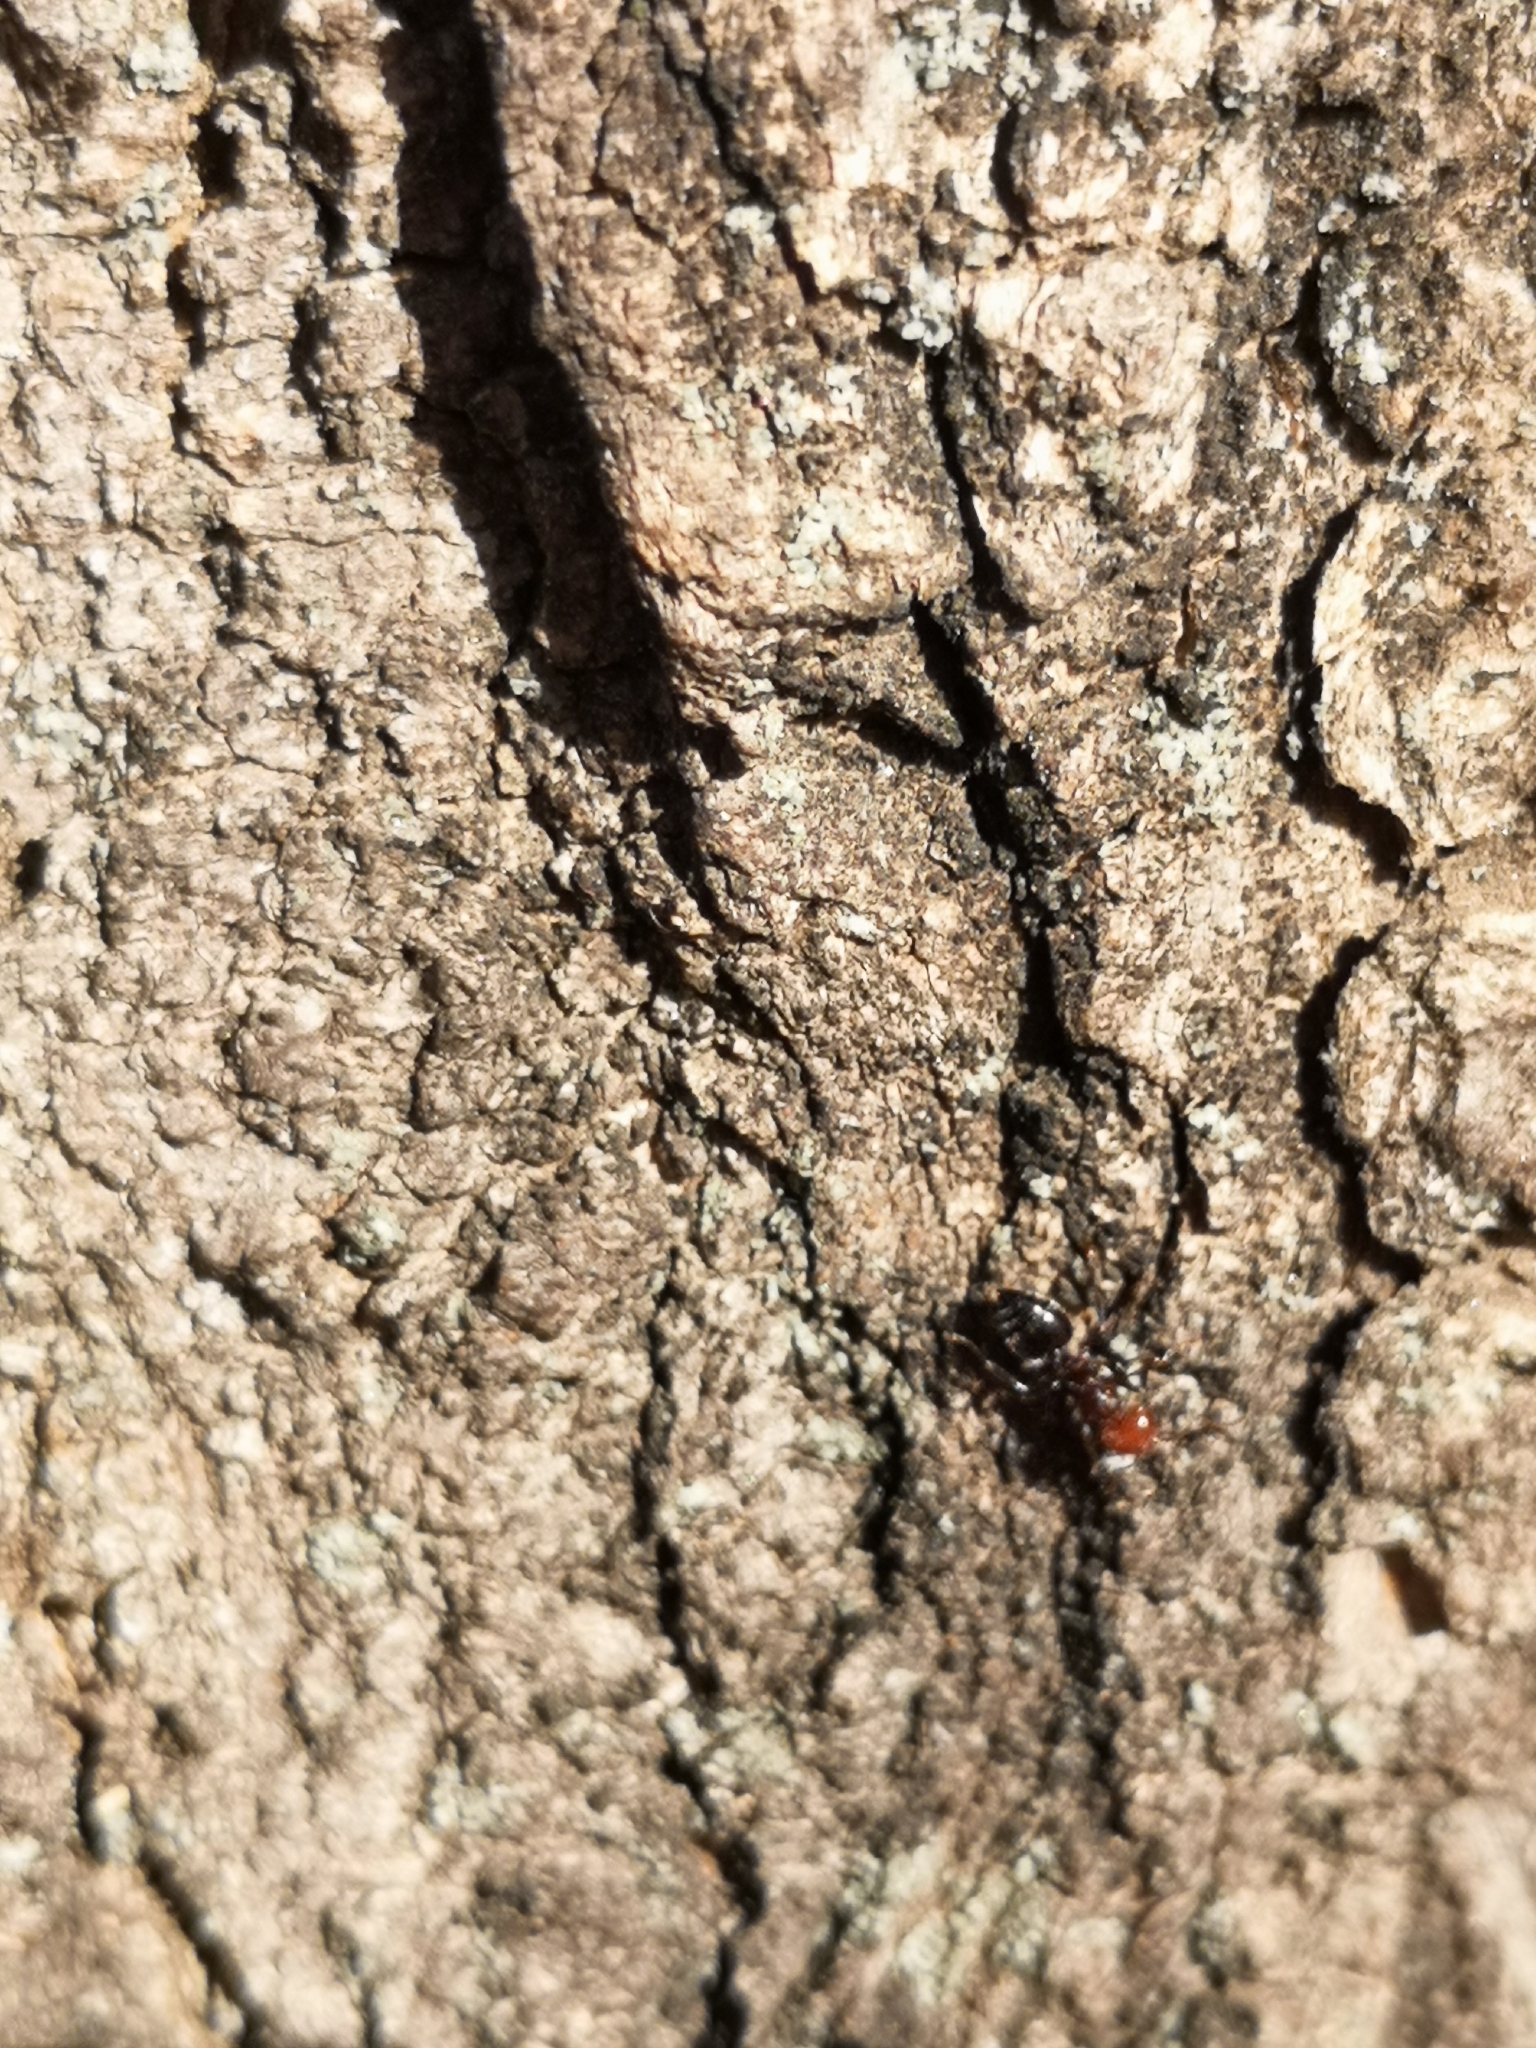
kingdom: Animalia
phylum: Arthropoda
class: Insecta
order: Hymenoptera
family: Formicidae
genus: Crematogaster
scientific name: Crematogaster scutellaris
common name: Fourmi du liège
